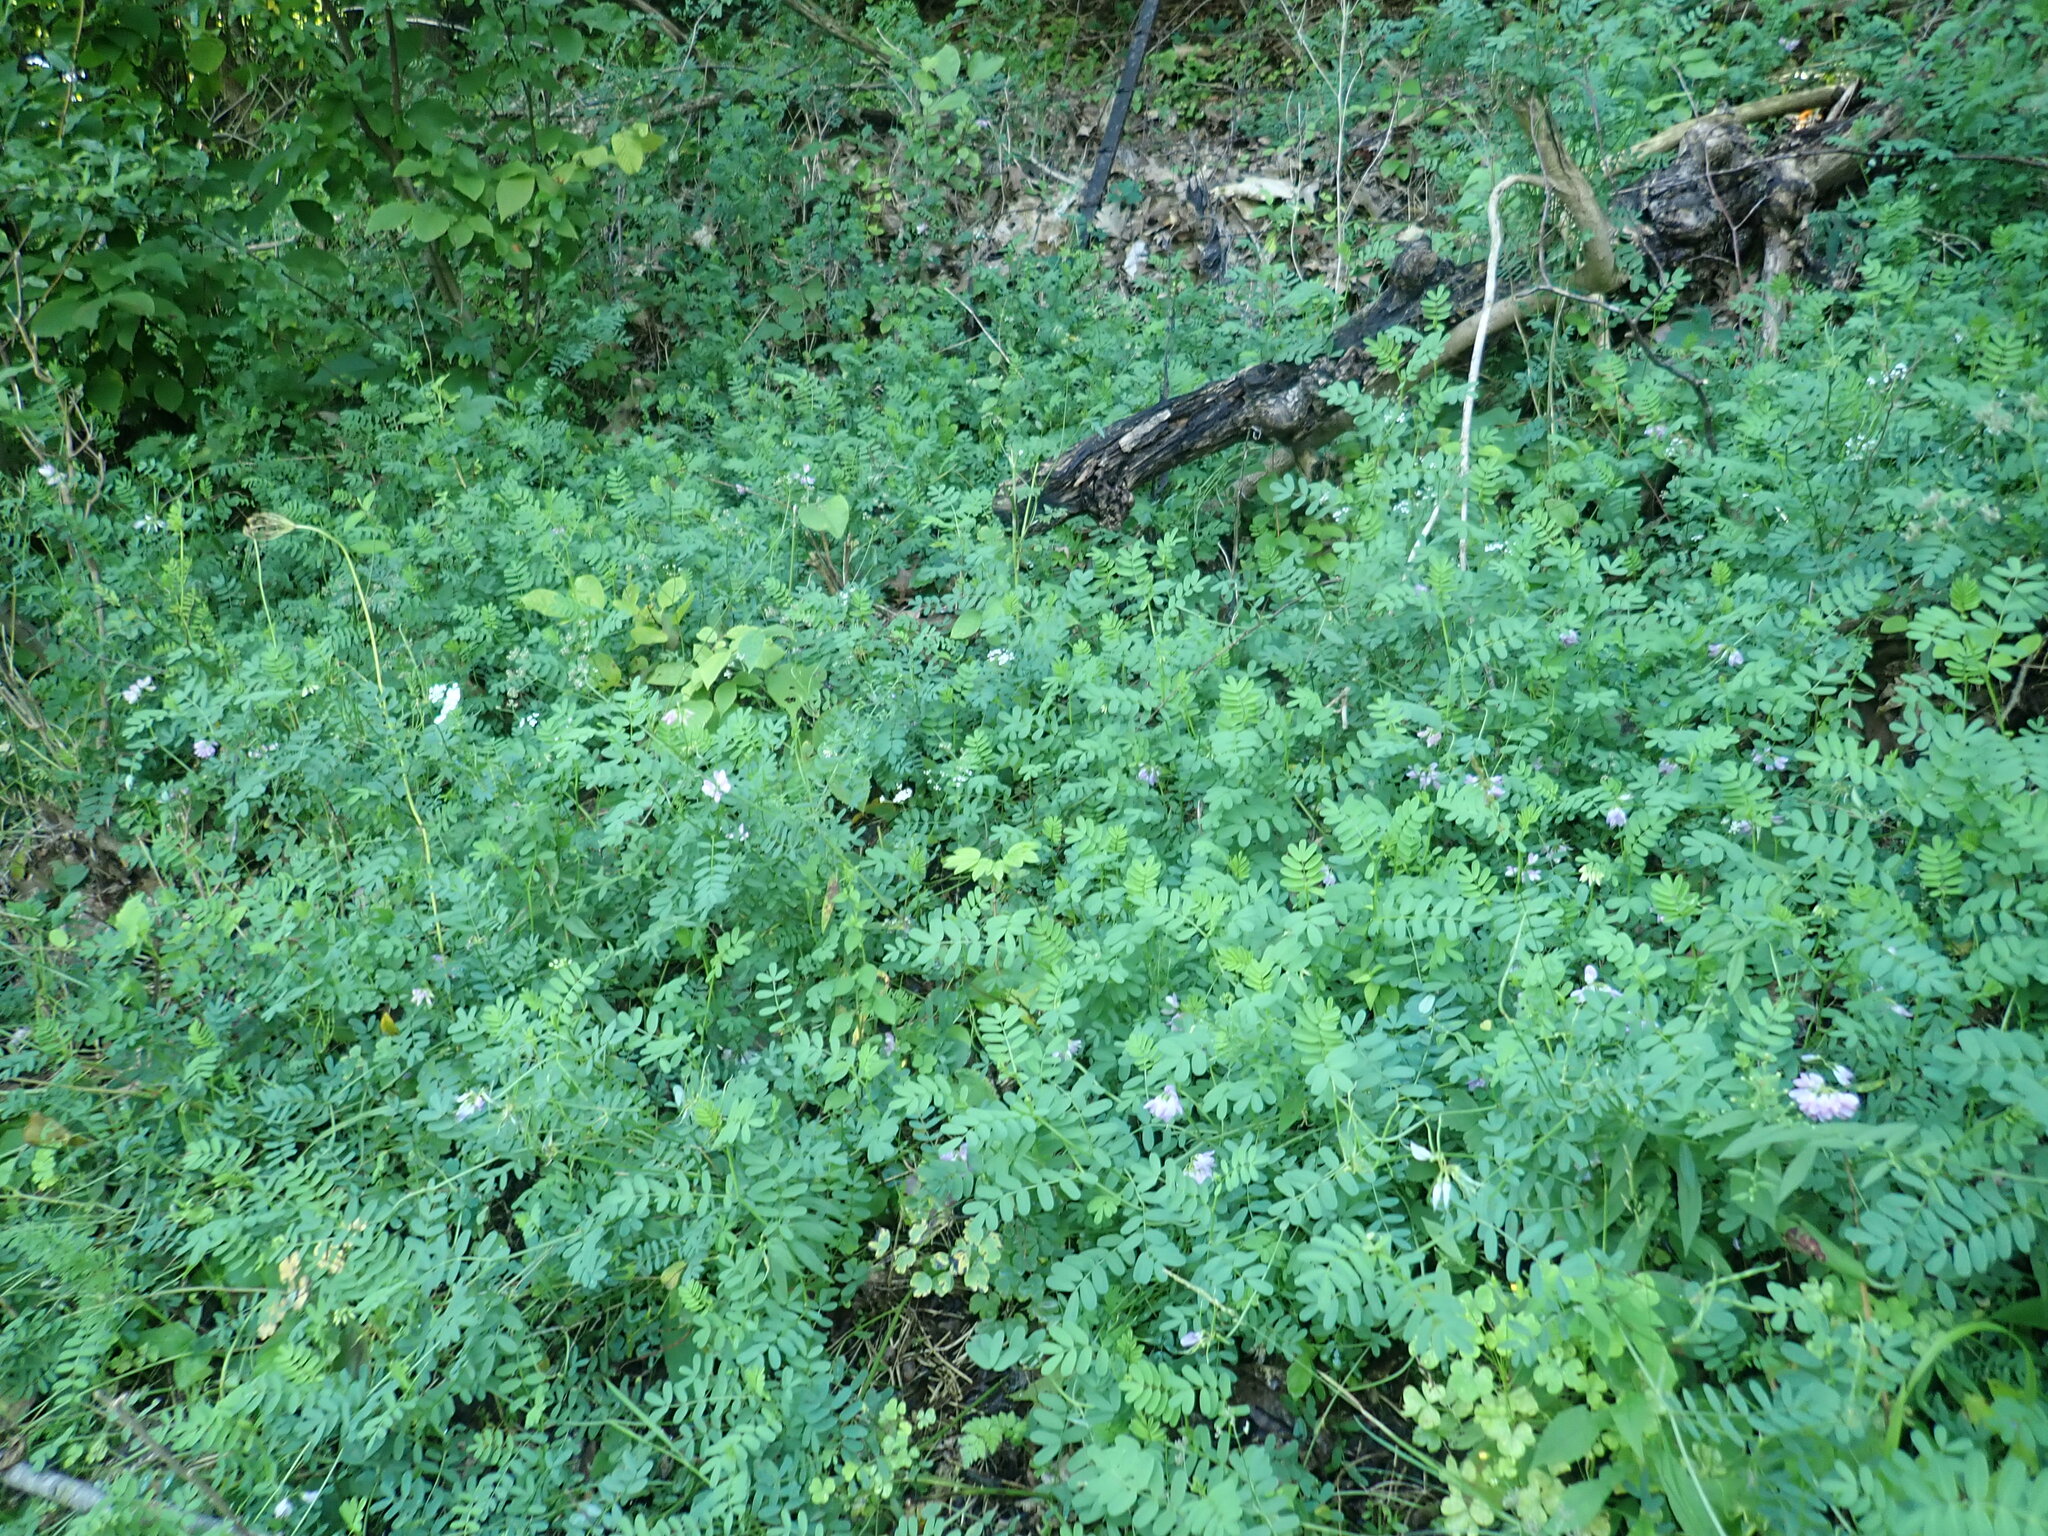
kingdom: Plantae
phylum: Tracheophyta
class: Magnoliopsida
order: Fabales
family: Fabaceae
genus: Coronilla
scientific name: Coronilla varia
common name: Crownvetch
